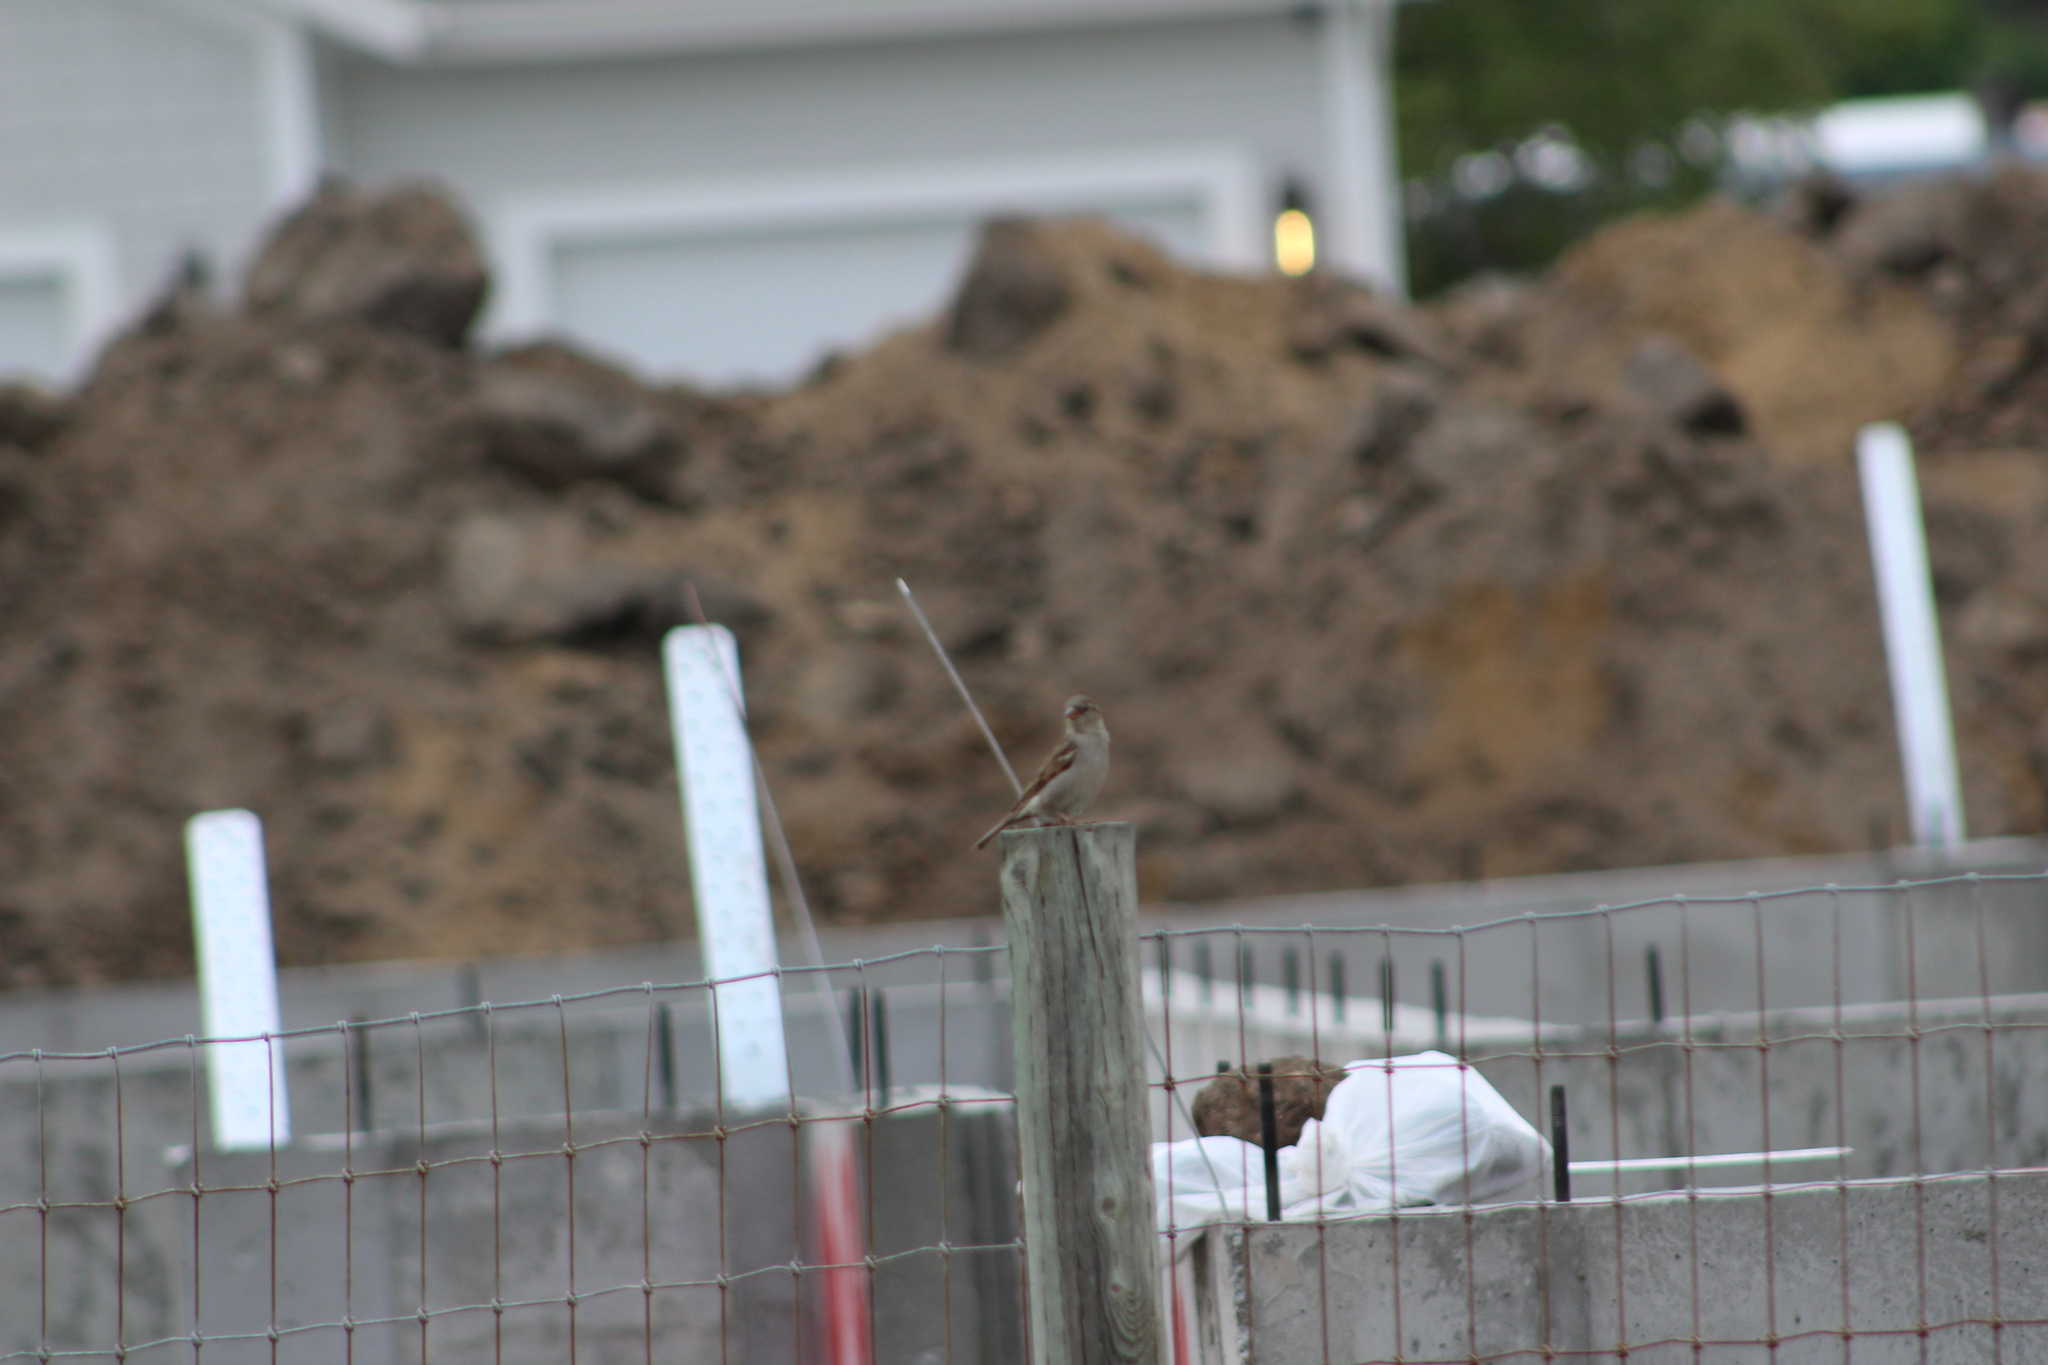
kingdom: Animalia
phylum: Chordata
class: Aves
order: Passeriformes
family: Passeridae
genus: Passer
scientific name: Passer domesticus
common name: House sparrow
